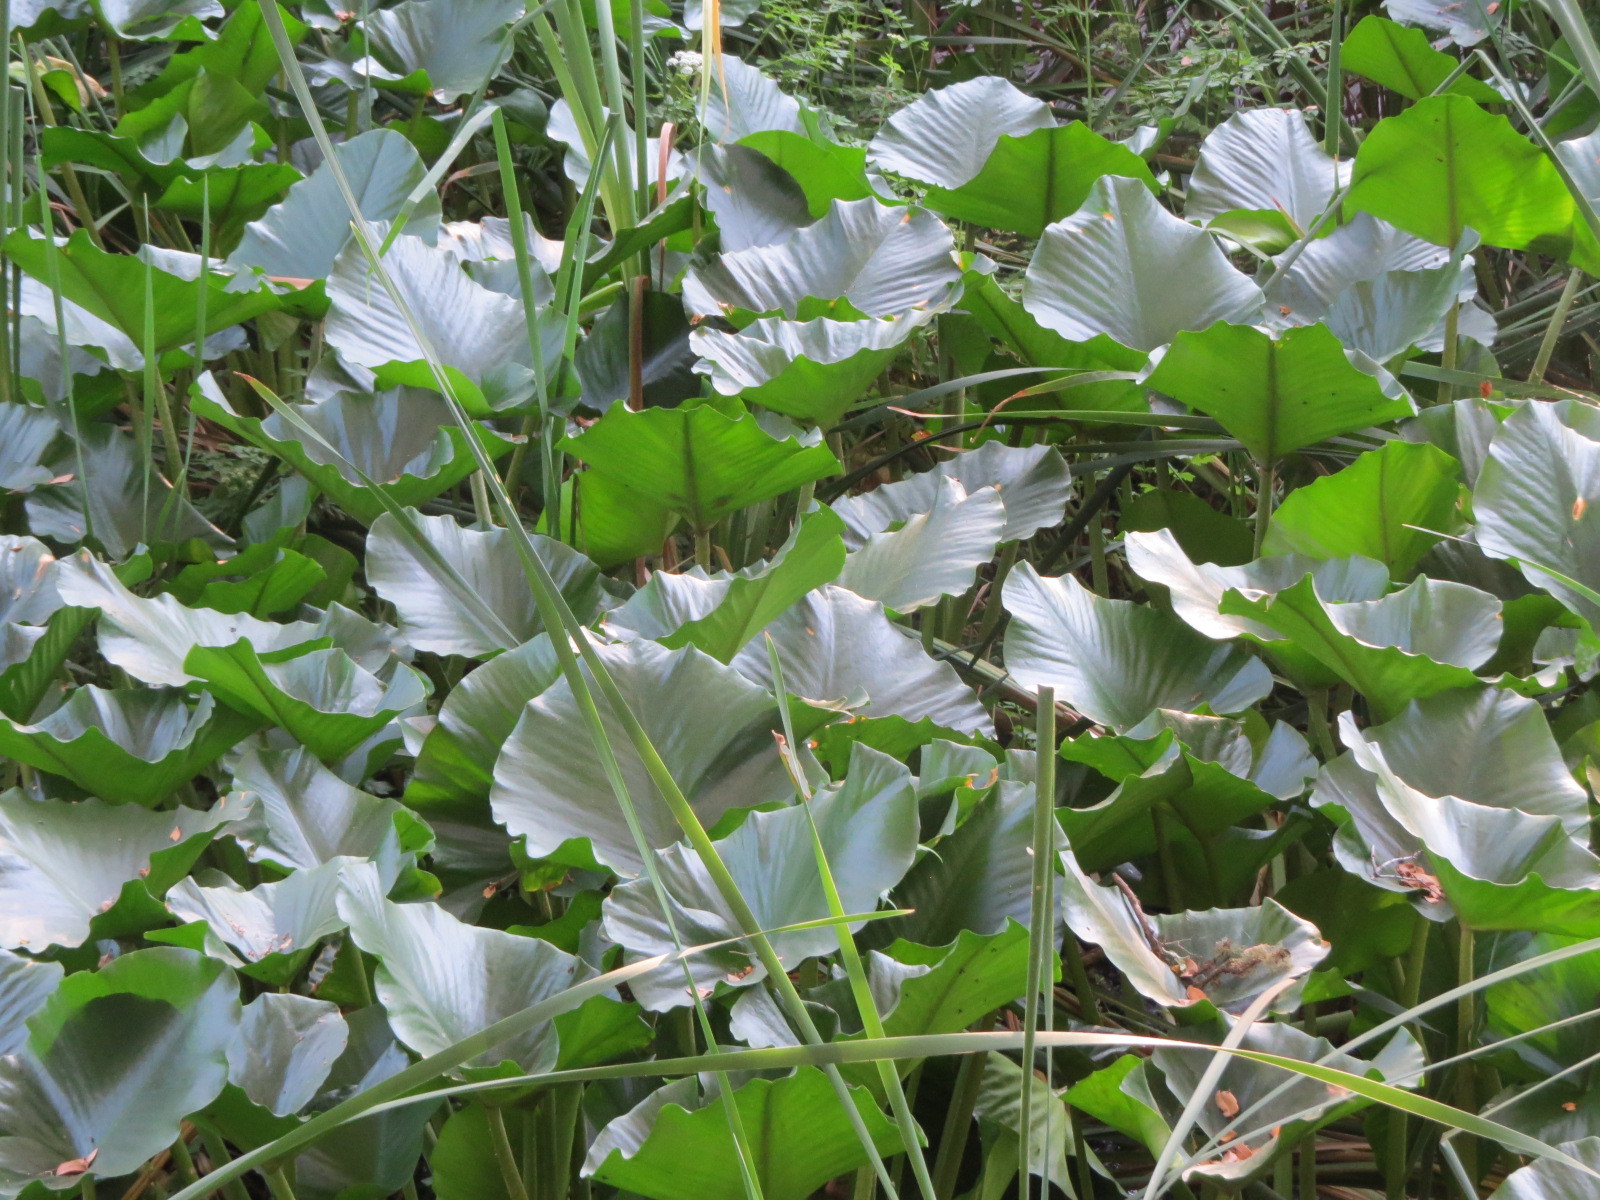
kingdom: Plantae
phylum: Tracheophyta
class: Magnoliopsida
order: Nymphaeales
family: Nymphaeaceae
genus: Nuphar
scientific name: Nuphar polysepala
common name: Rocky mountain cow-lily
